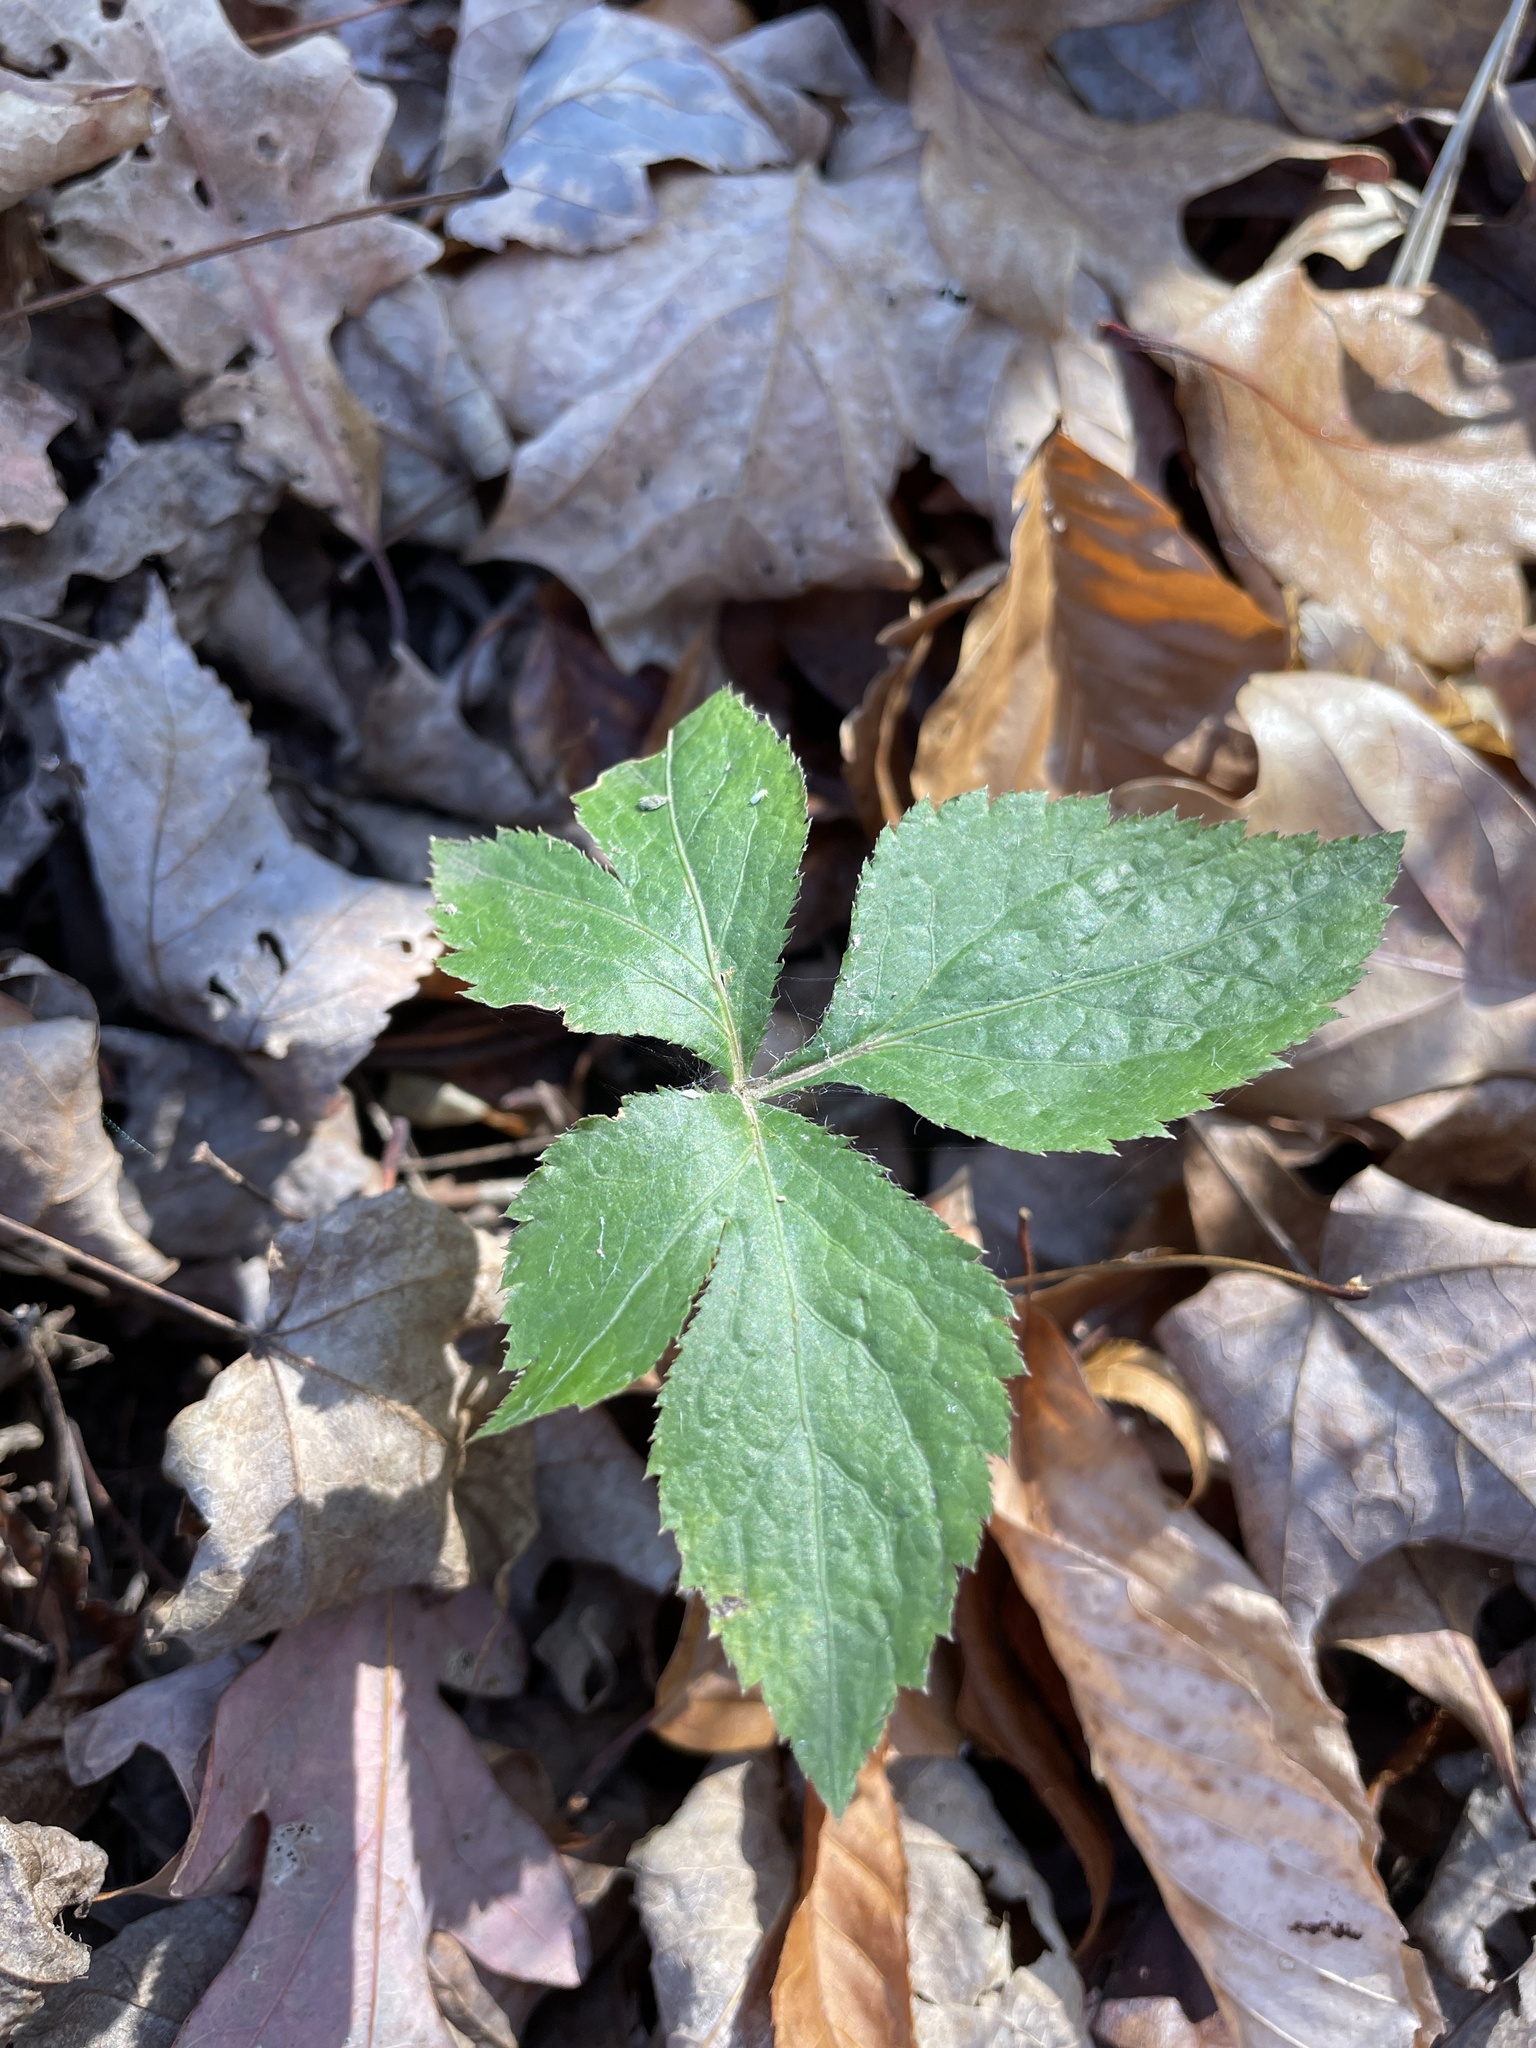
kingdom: Plantae
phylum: Tracheophyta
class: Magnoliopsida
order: Apiales
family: Apiaceae
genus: Cryptotaenia
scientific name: Cryptotaenia canadensis
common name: Honewort
